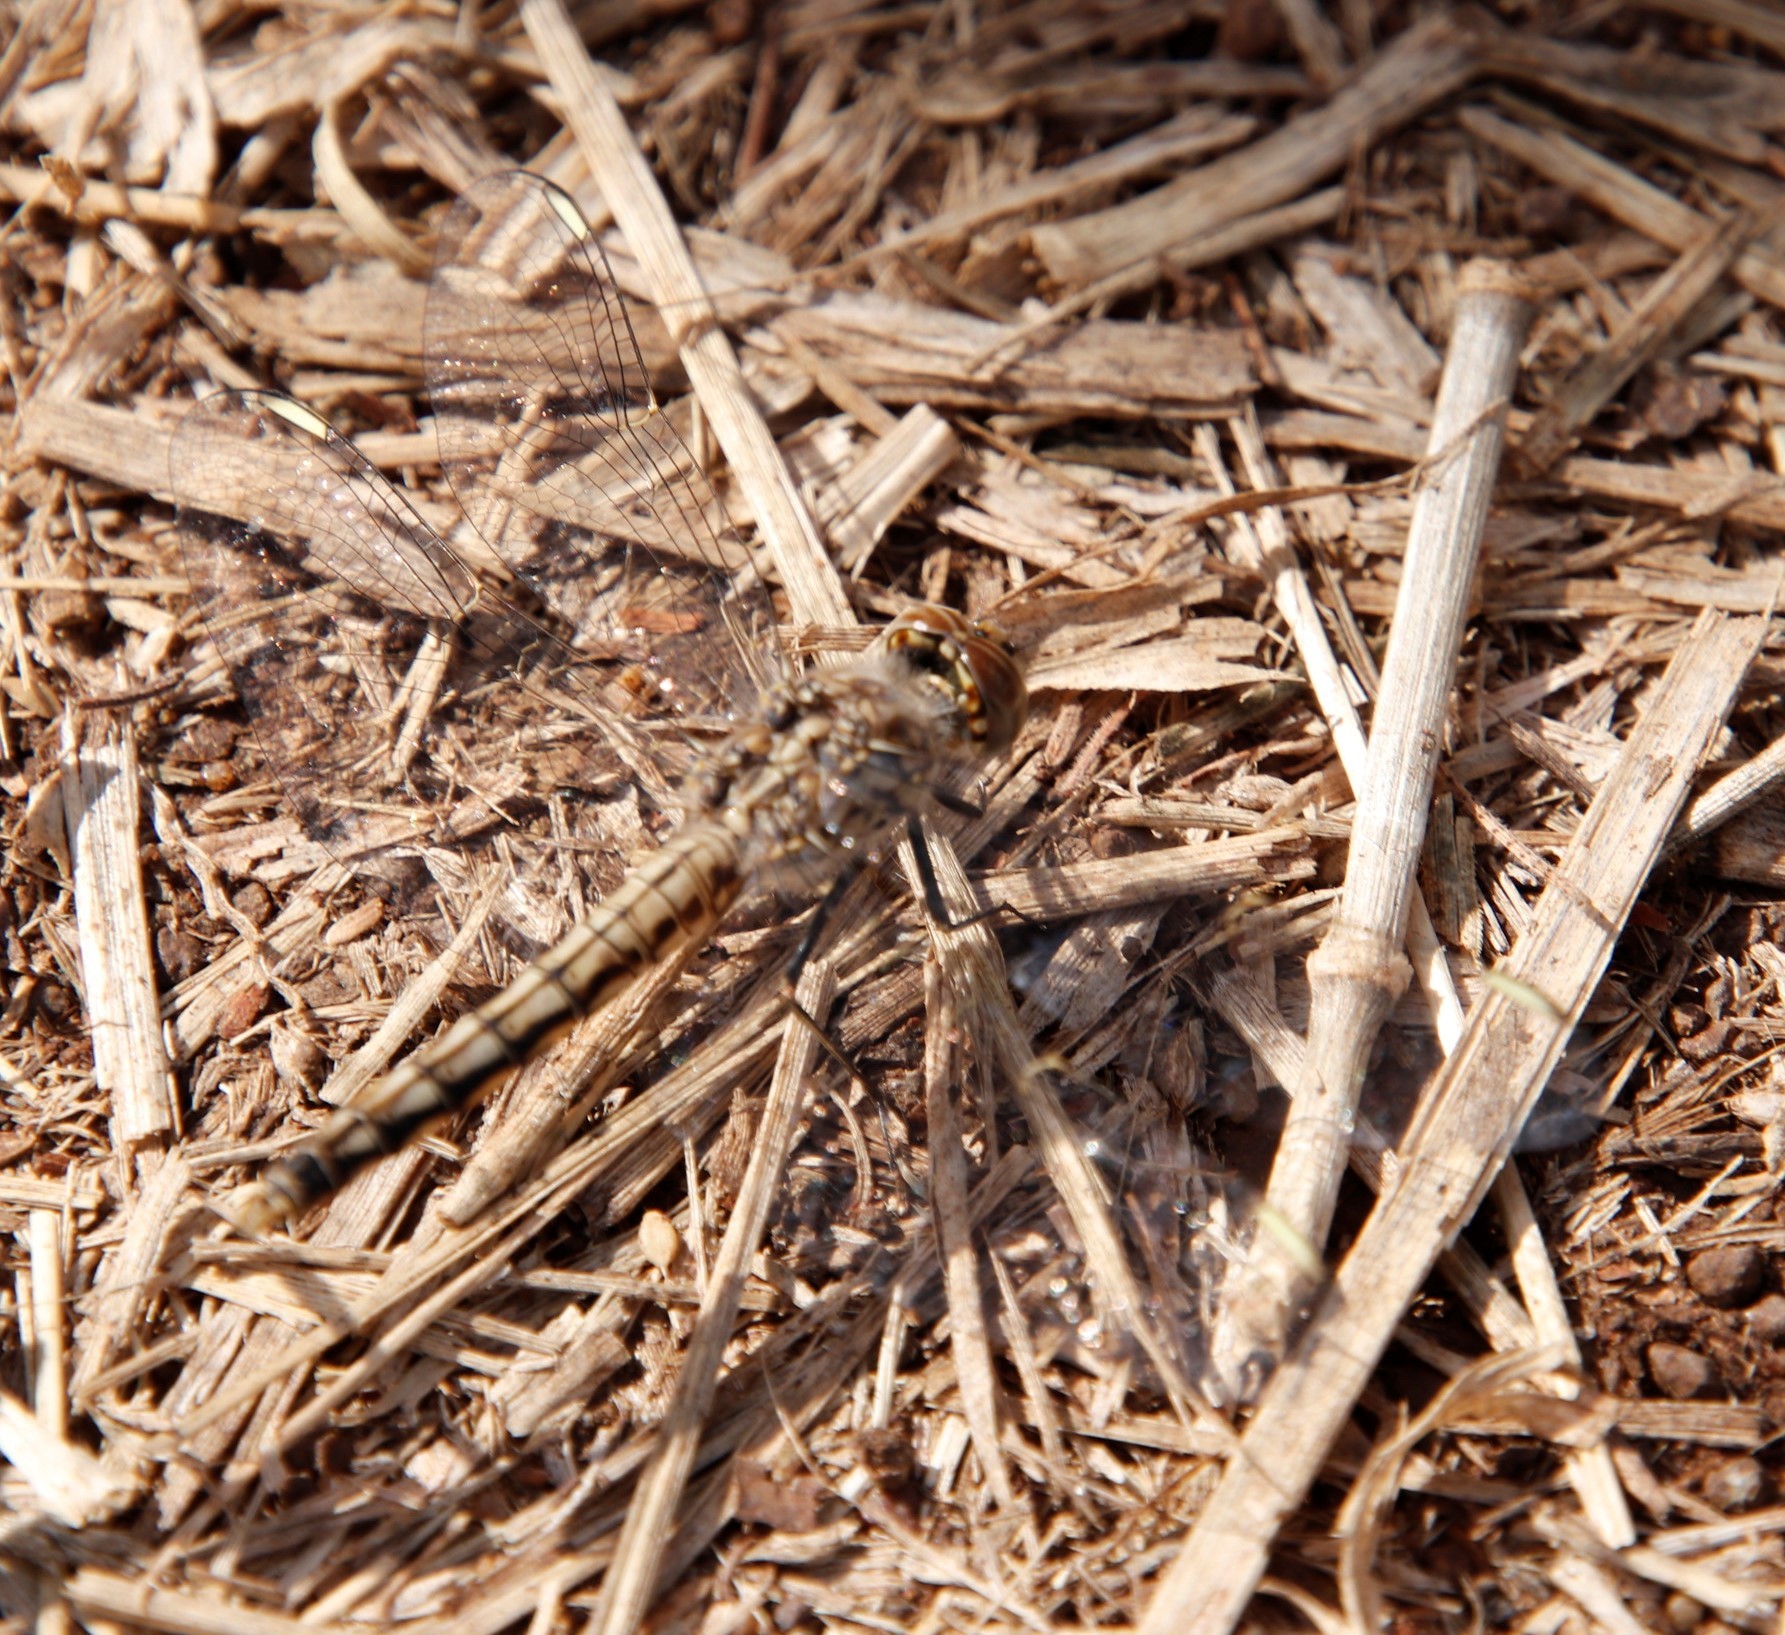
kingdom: Animalia
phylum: Arthropoda
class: Insecta
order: Odonata
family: Libellulidae
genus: Brachythemis
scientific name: Brachythemis leucosticta
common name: Banded groundling
